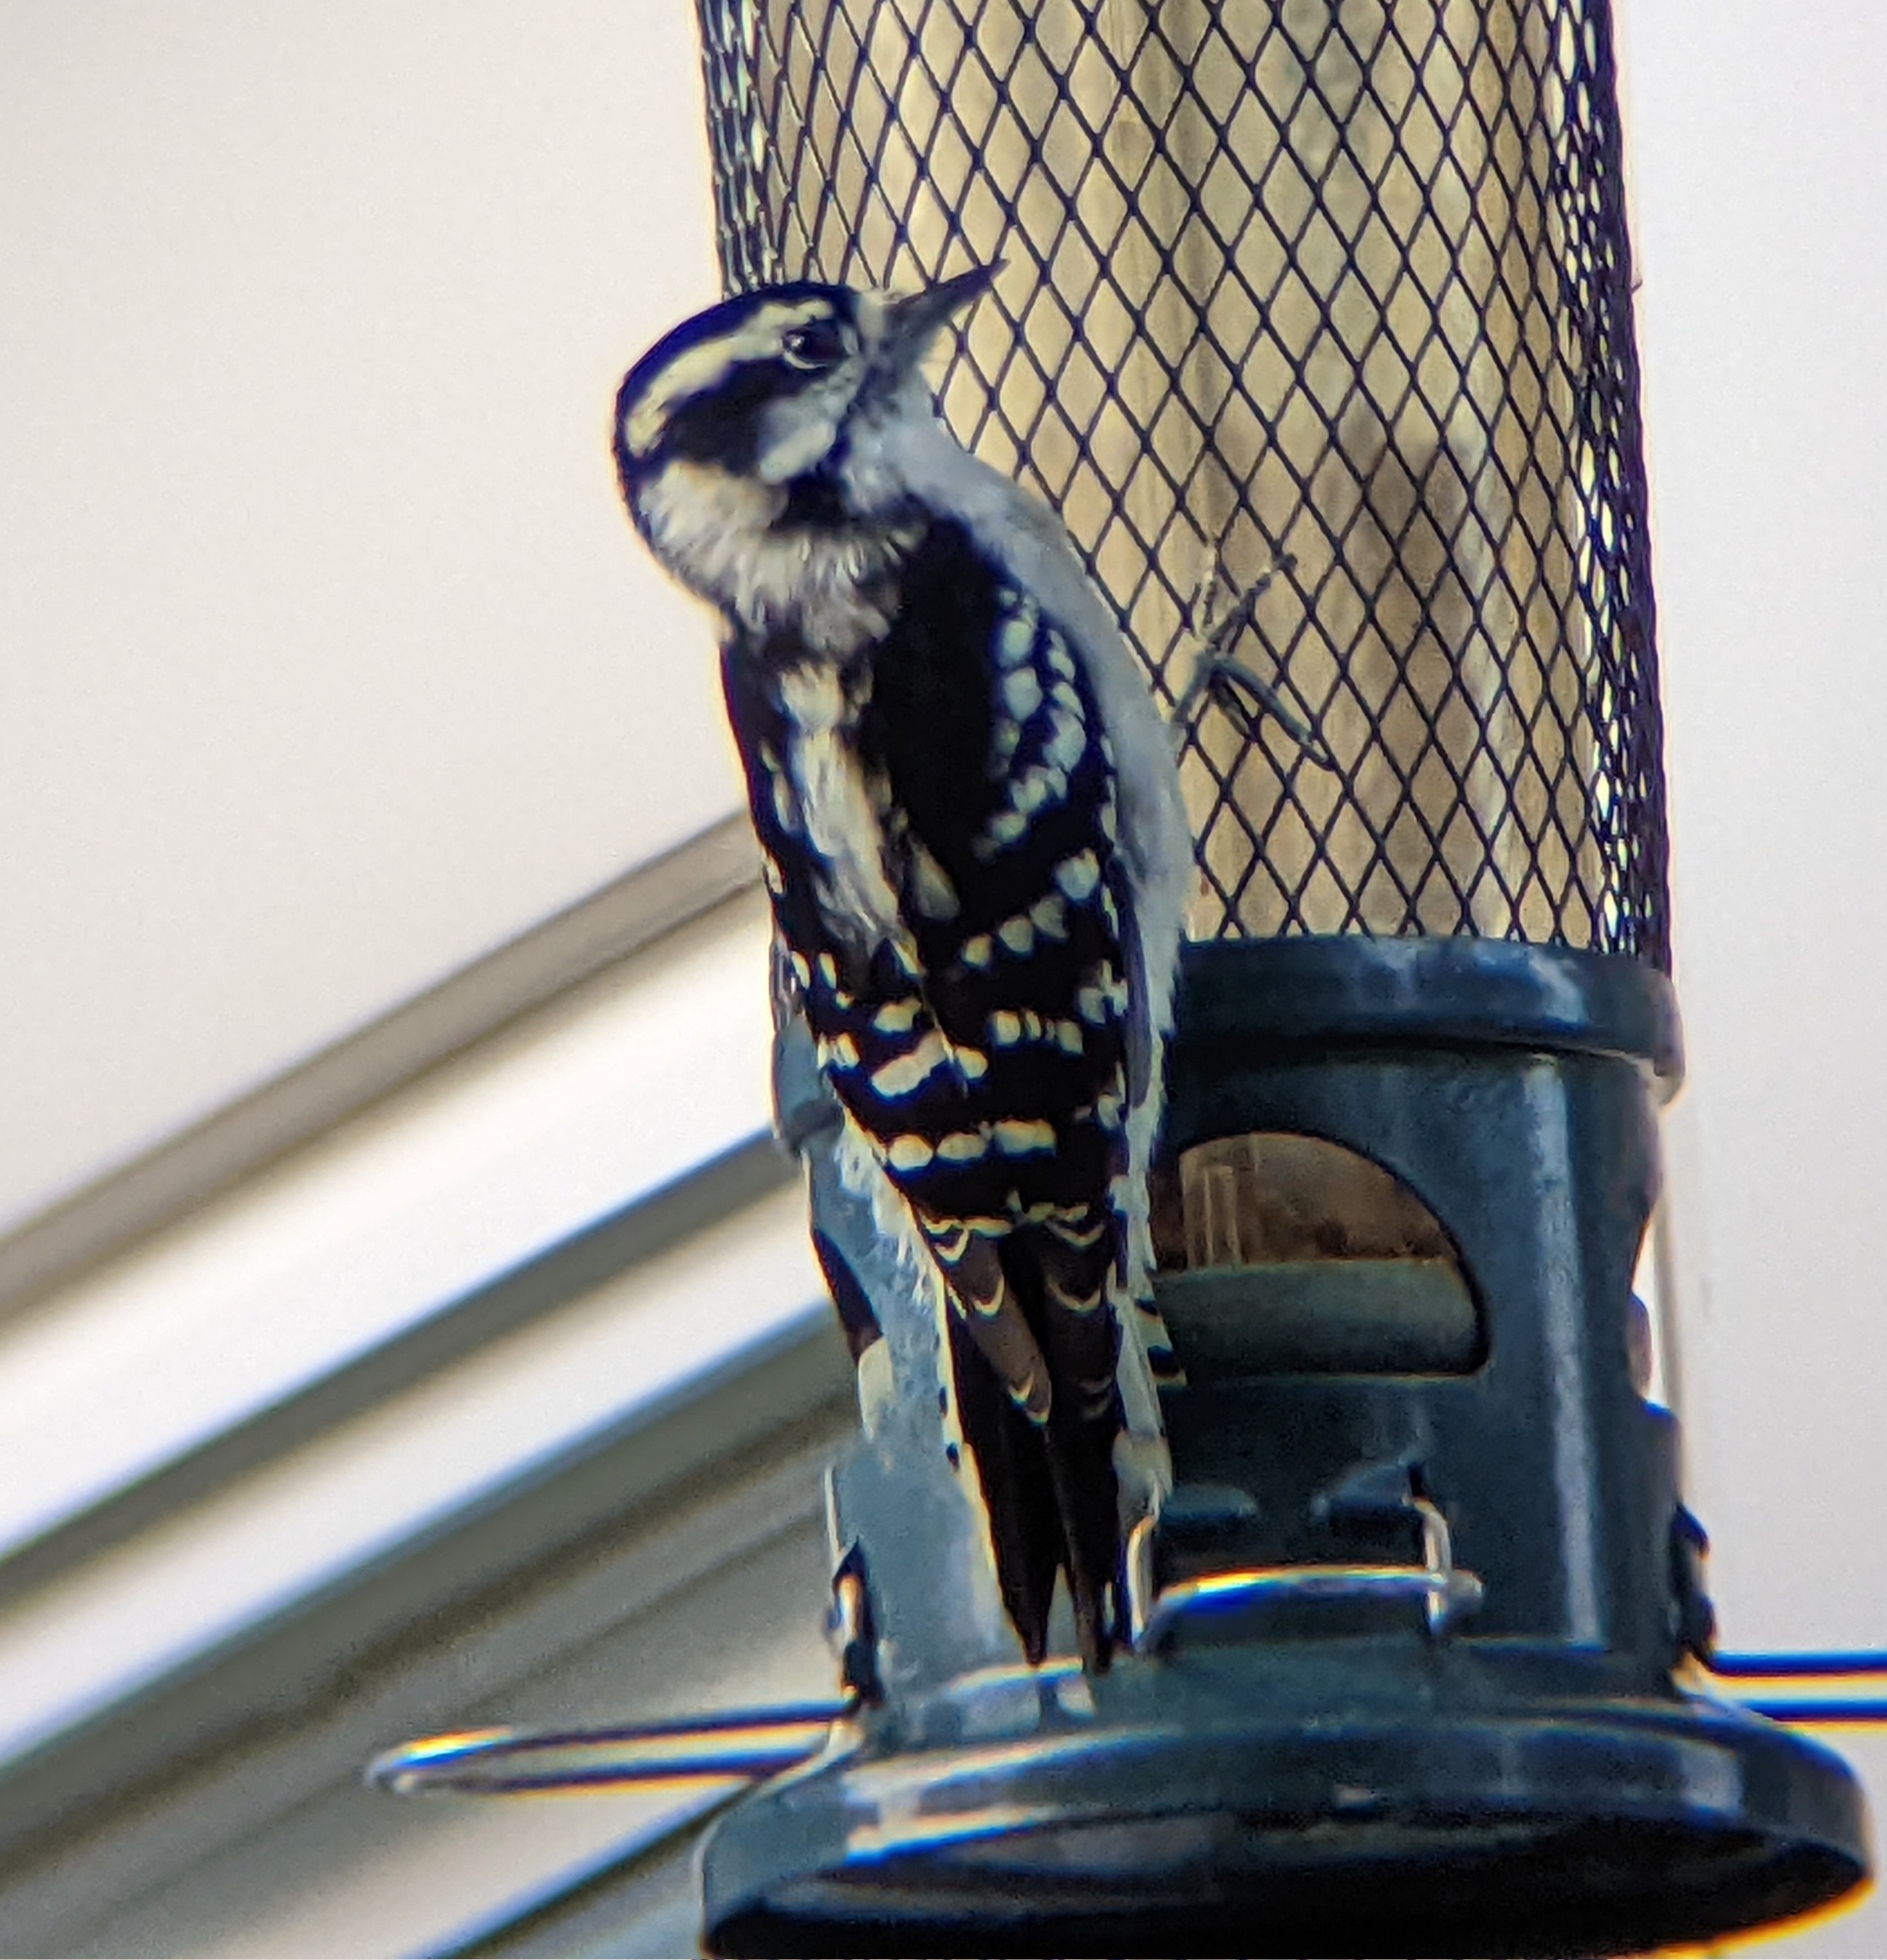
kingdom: Animalia
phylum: Chordata
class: Aves
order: Piciformes
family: Picidae
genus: Dryobates
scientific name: Dryobates pubescens
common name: Downy woodpecker
